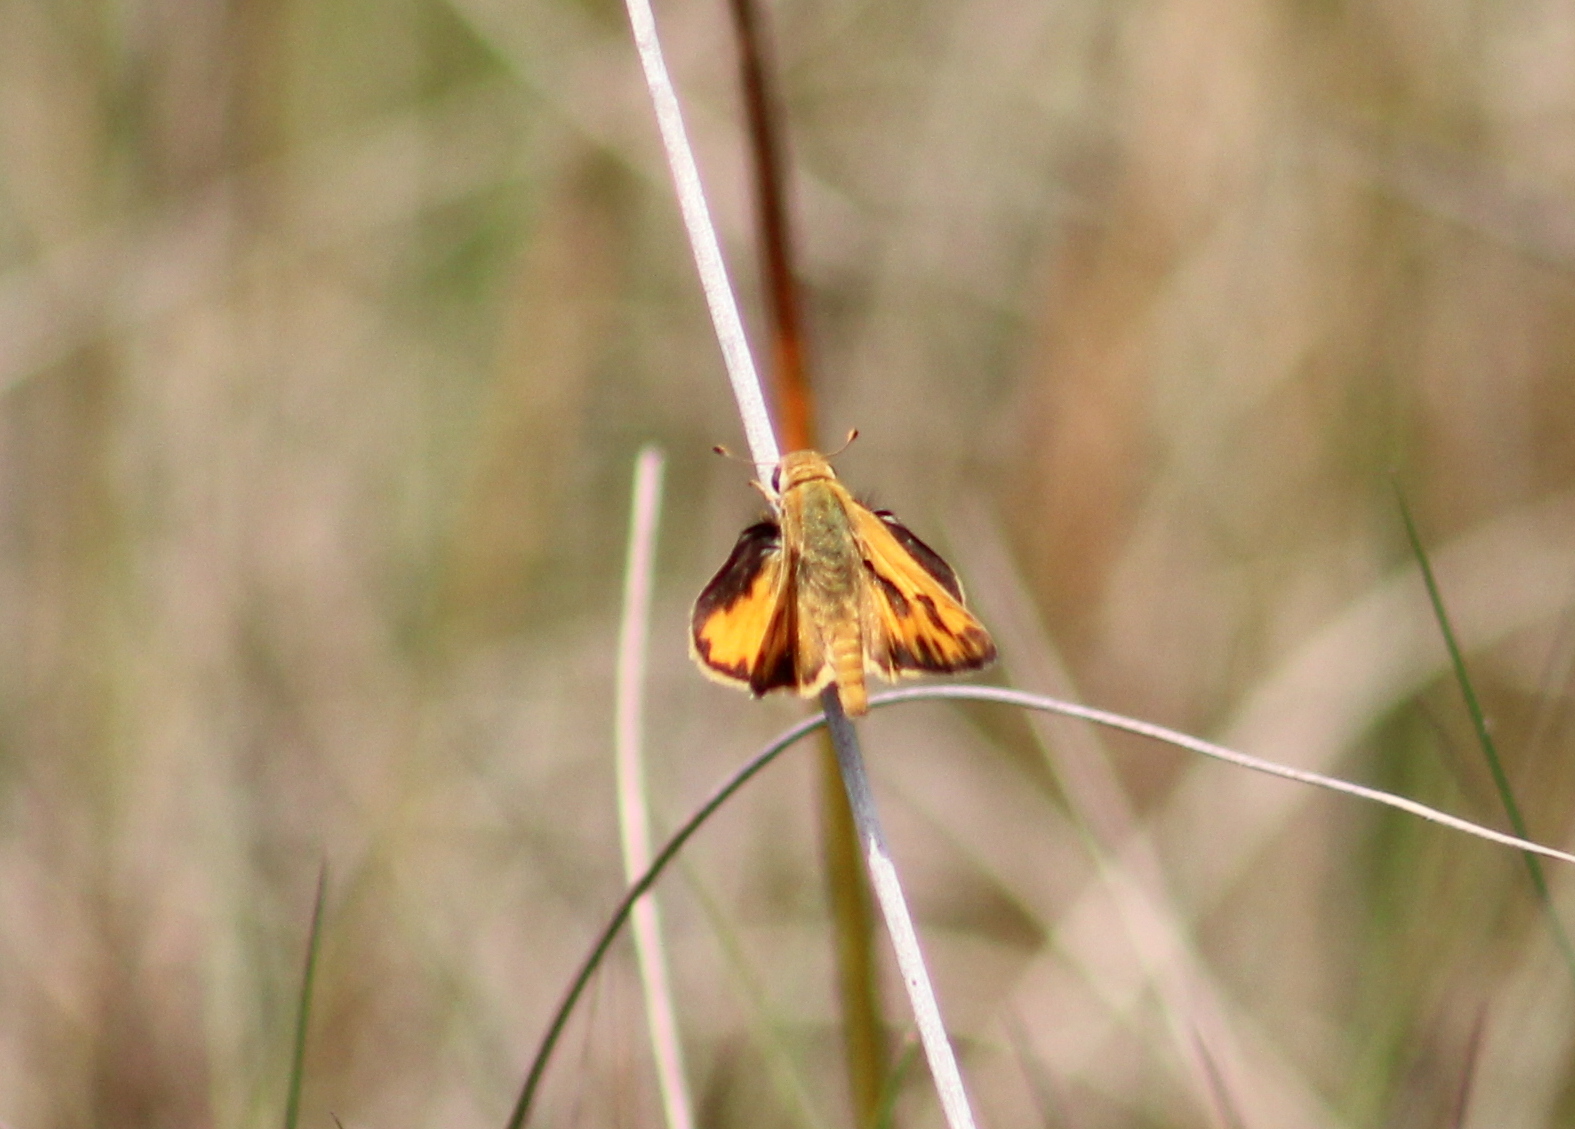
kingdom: Animalia
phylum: Arthropoda
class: Insecta
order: Lepidoptera
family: Hesperiidae
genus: Hylephila
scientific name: Hylephila phyleus
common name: Fiery skipper
